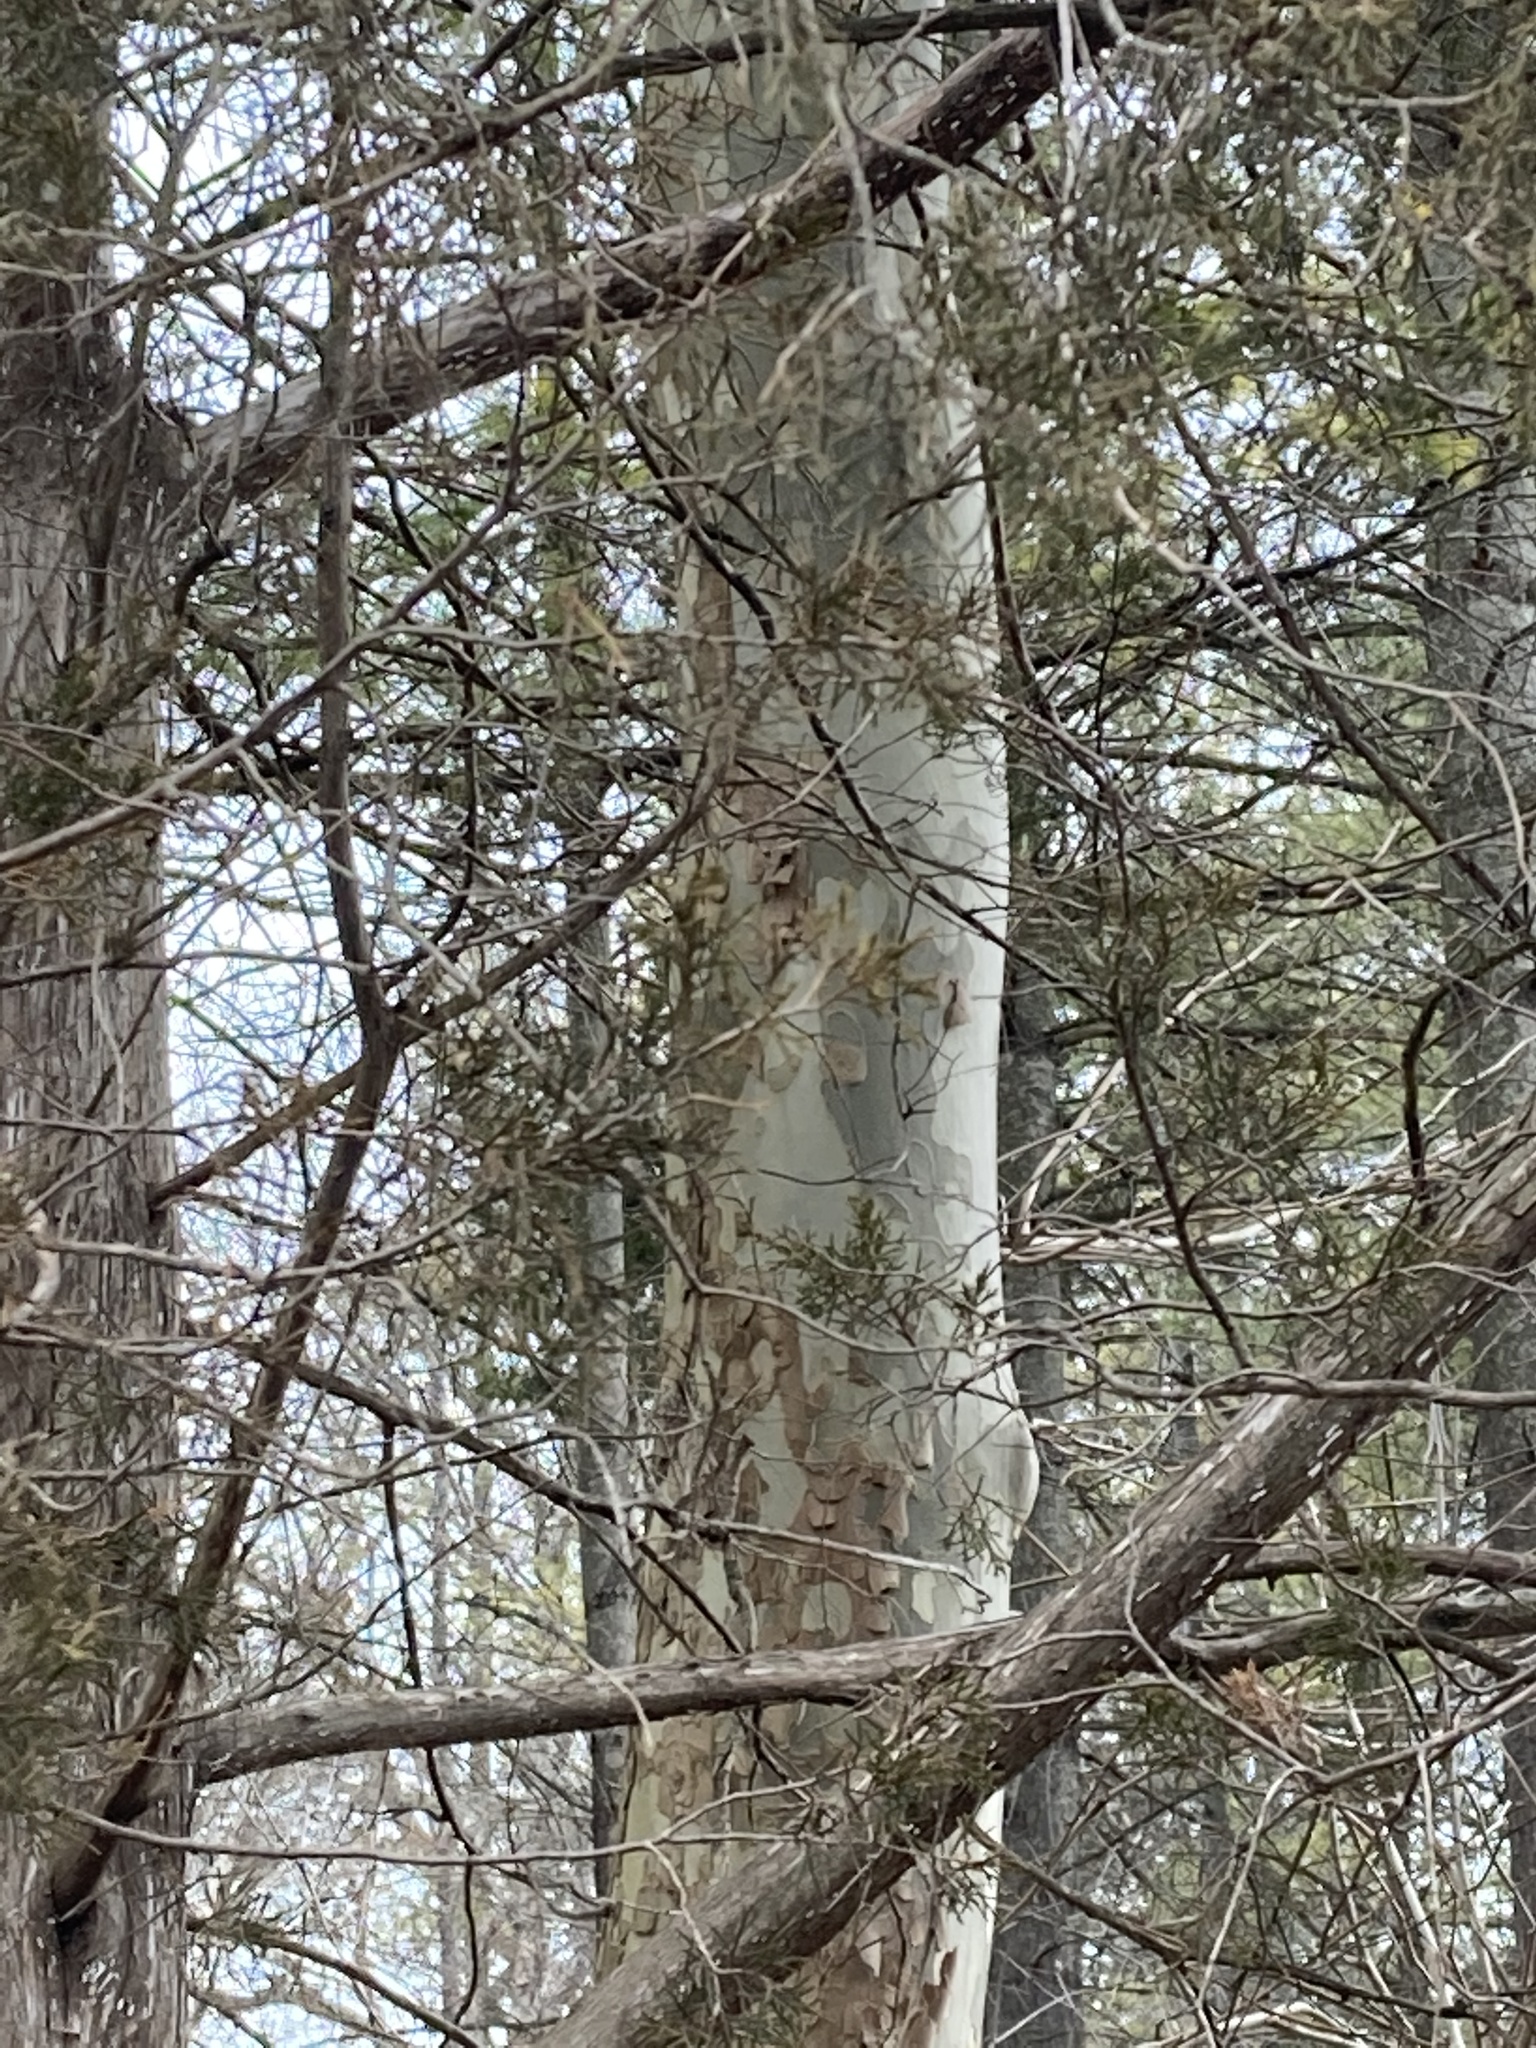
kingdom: Plantae
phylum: Tracheophyta
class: Magnoliopsida
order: Proteales
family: Platanaceae
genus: Platanus
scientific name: Platanus occidentalis
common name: American sycamore
